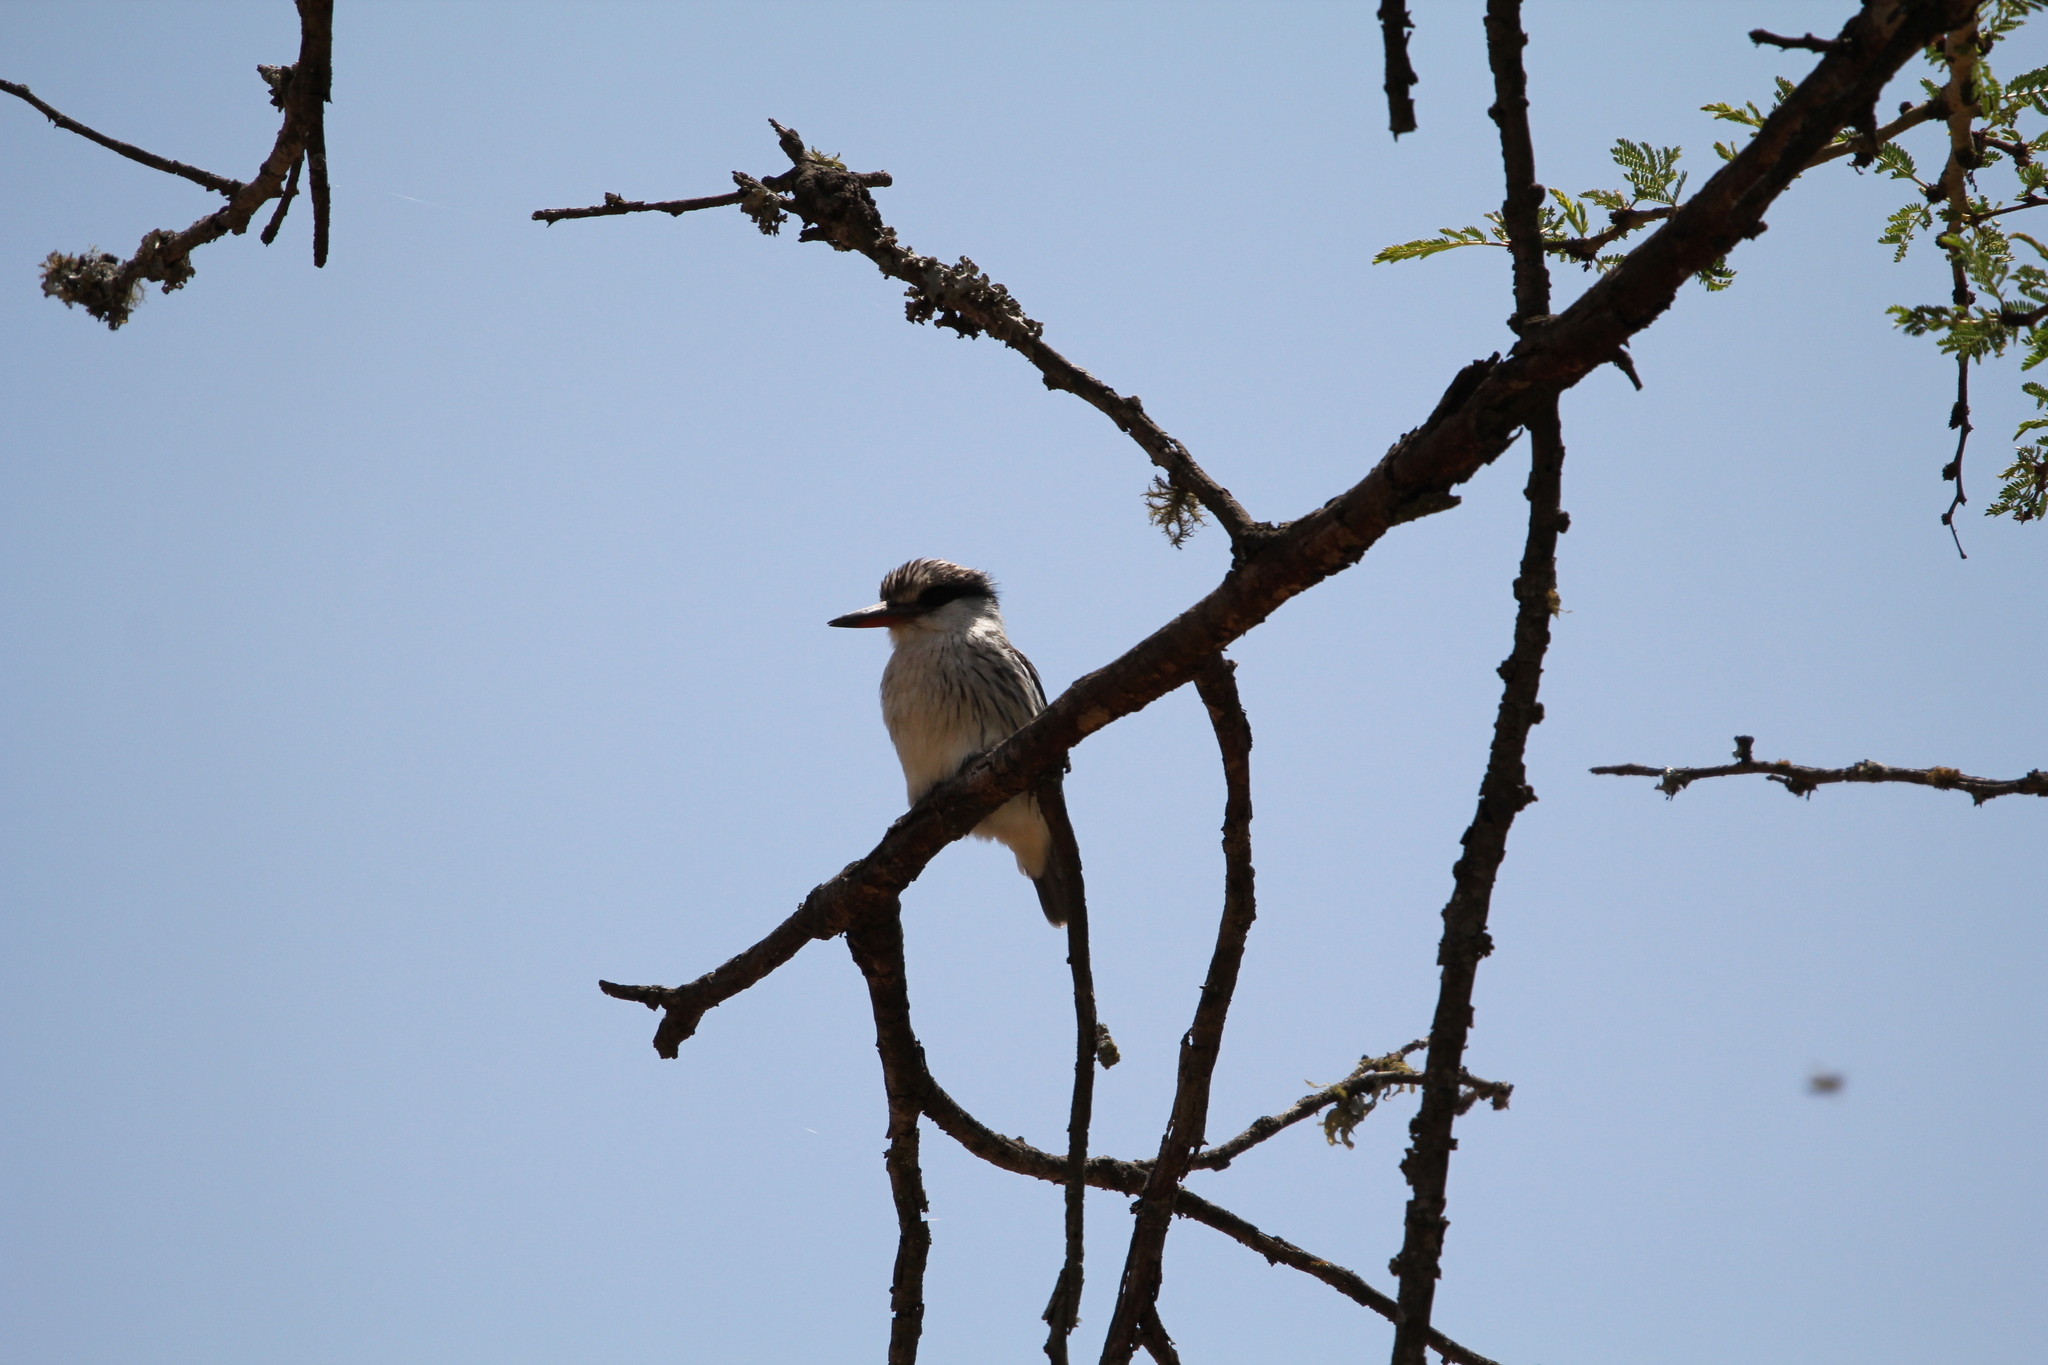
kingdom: Animalia
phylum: Chordata
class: Aves
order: Coraciiformes
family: Alcedinidae
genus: Halcyon
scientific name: Halcyon chelicuti
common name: Striped kingfisher
